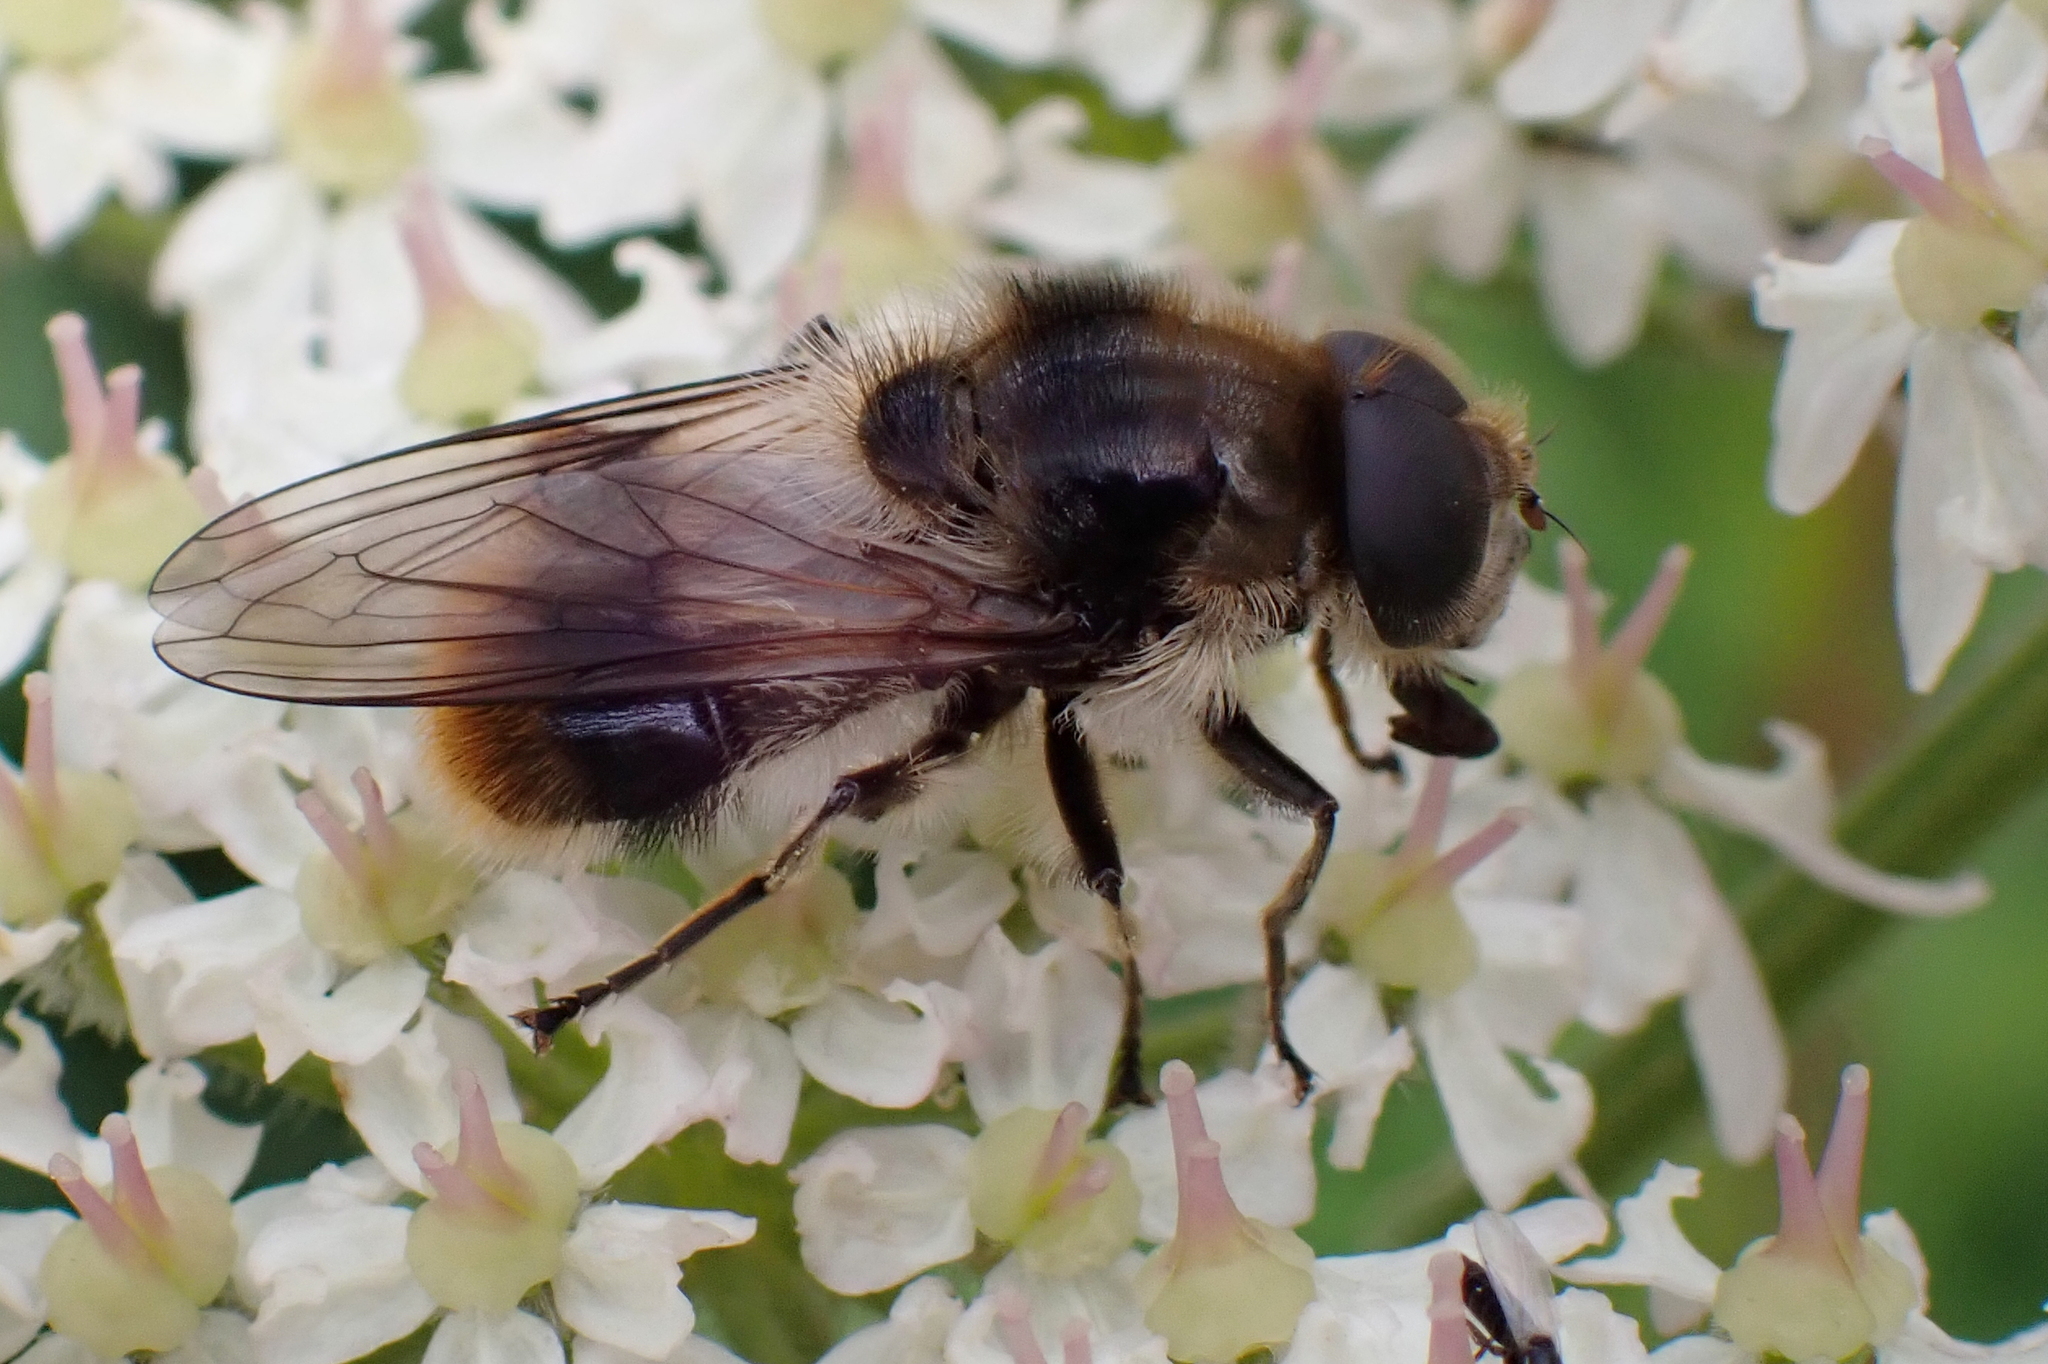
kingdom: Animalia
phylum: Arthropoda
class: Insecta
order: Diptera
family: Syrphidae
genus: Cheilosia
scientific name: Cheilosia illustrata
